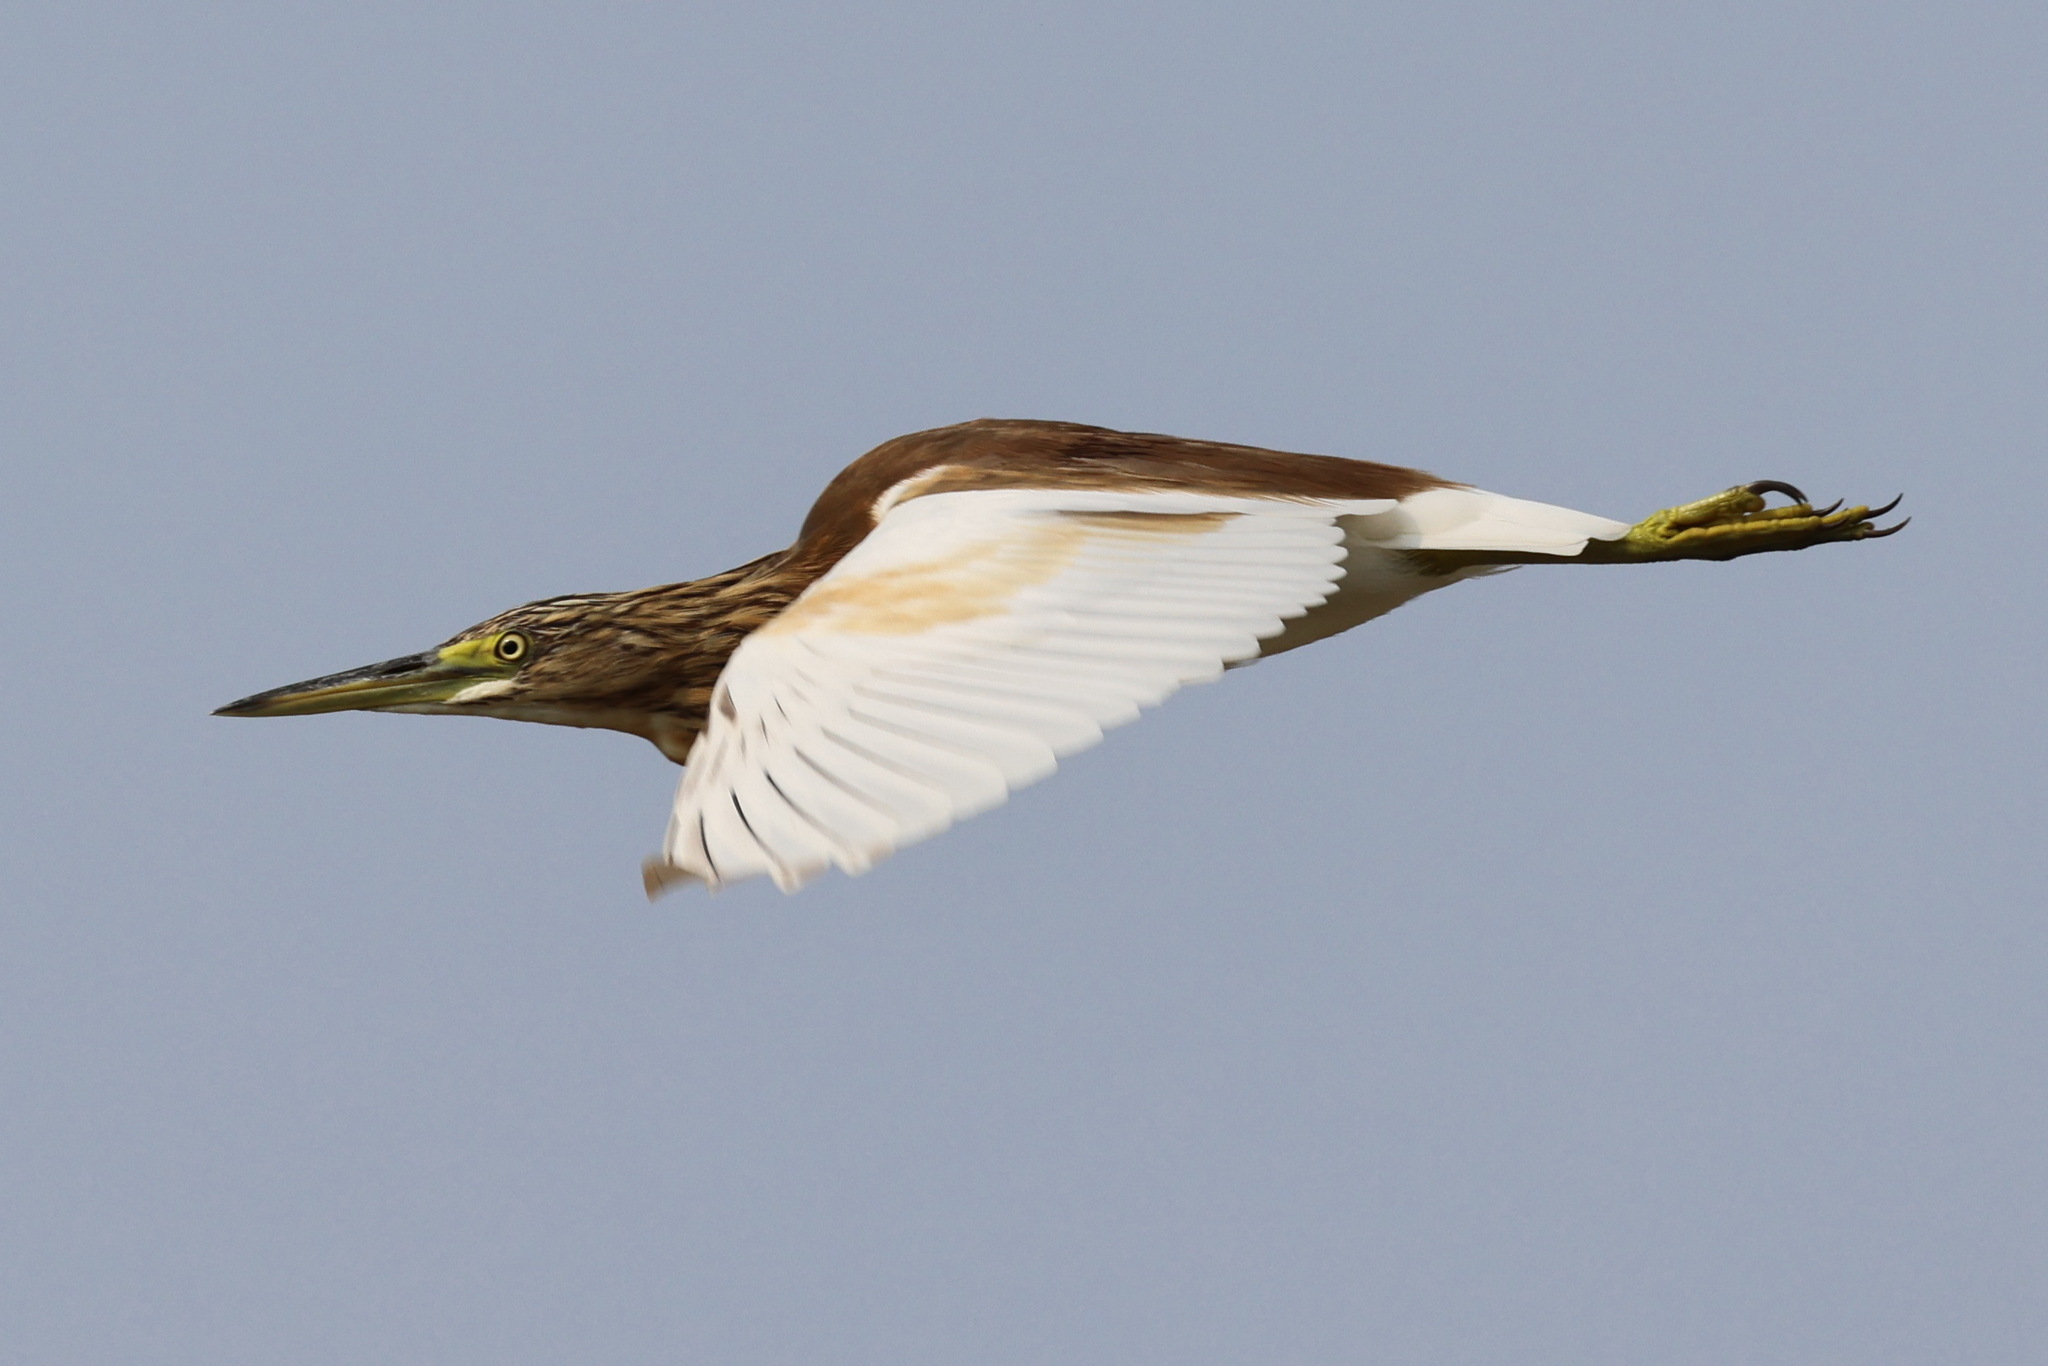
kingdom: Animalia
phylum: Chordata
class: Aves
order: Pelecaniformes
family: Ardeidae
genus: Ardeola
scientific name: Ardeola ralloides
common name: Squacco heron
